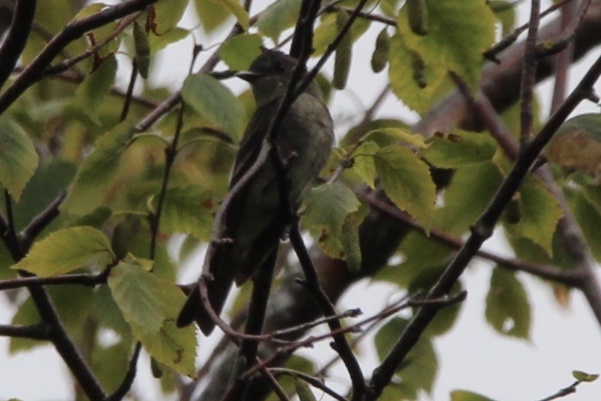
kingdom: Animalia
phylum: Chordata
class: Aves
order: Passeriformes
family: Tyrannidae
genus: Contopus
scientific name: Contopus sordidulus
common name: Western wood-pewee
